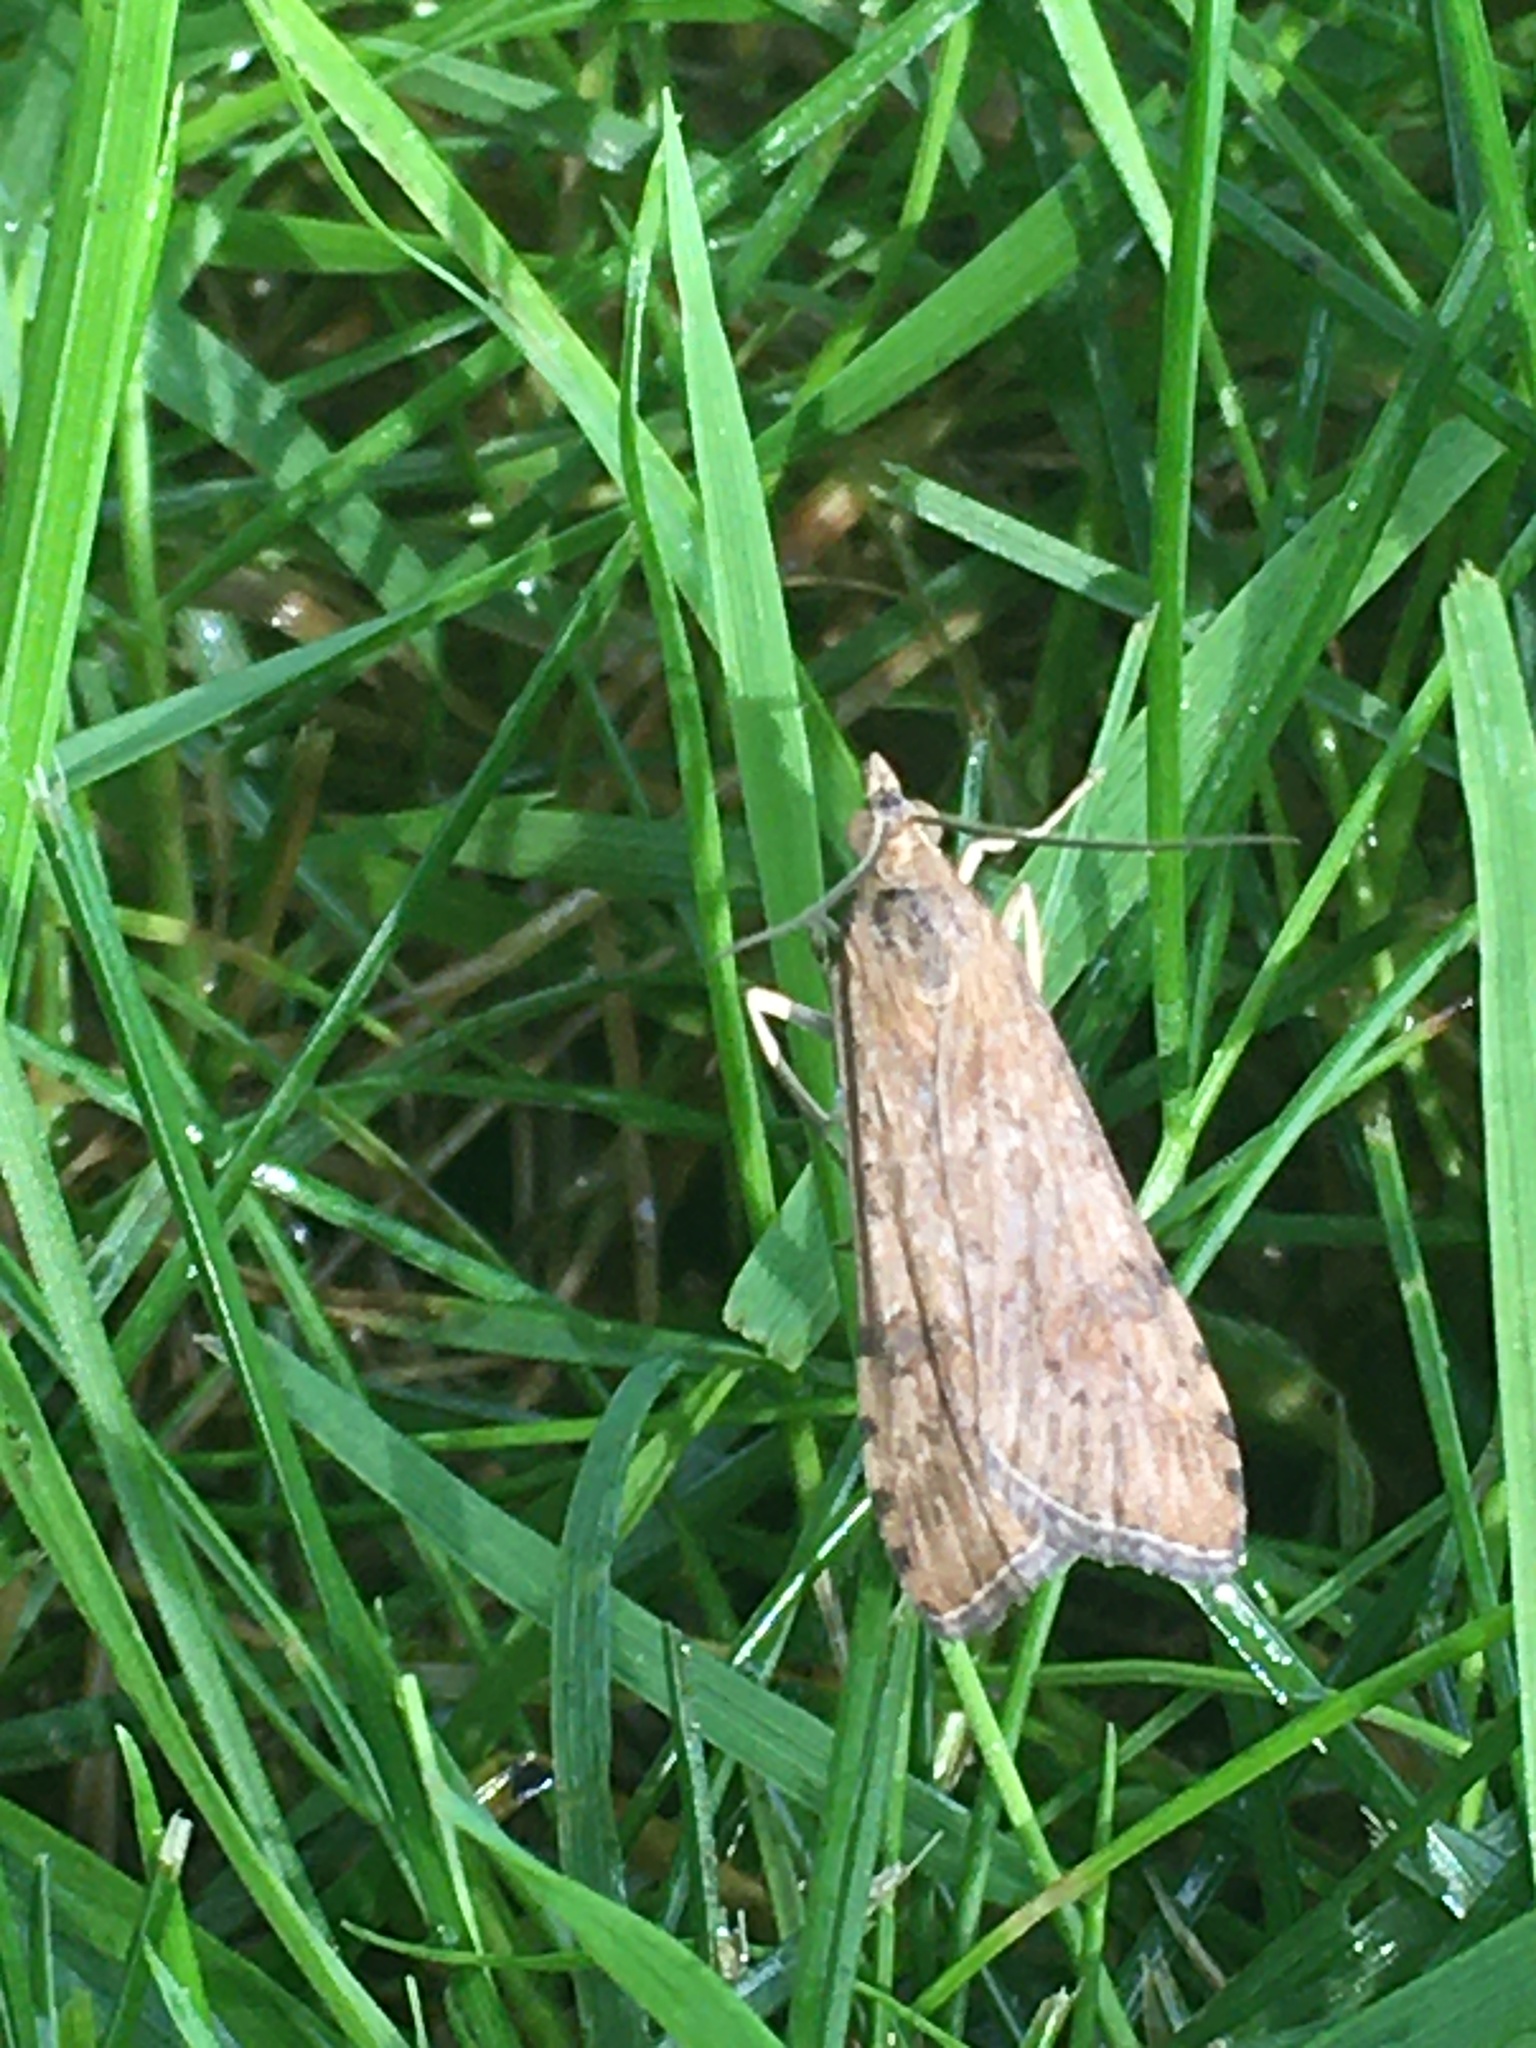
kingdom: Animalia
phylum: Arthropoda
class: Insecta
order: Lepidoptera
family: Crambidae
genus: Nomophila
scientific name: Nomophila nearctica
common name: American rush veneer
